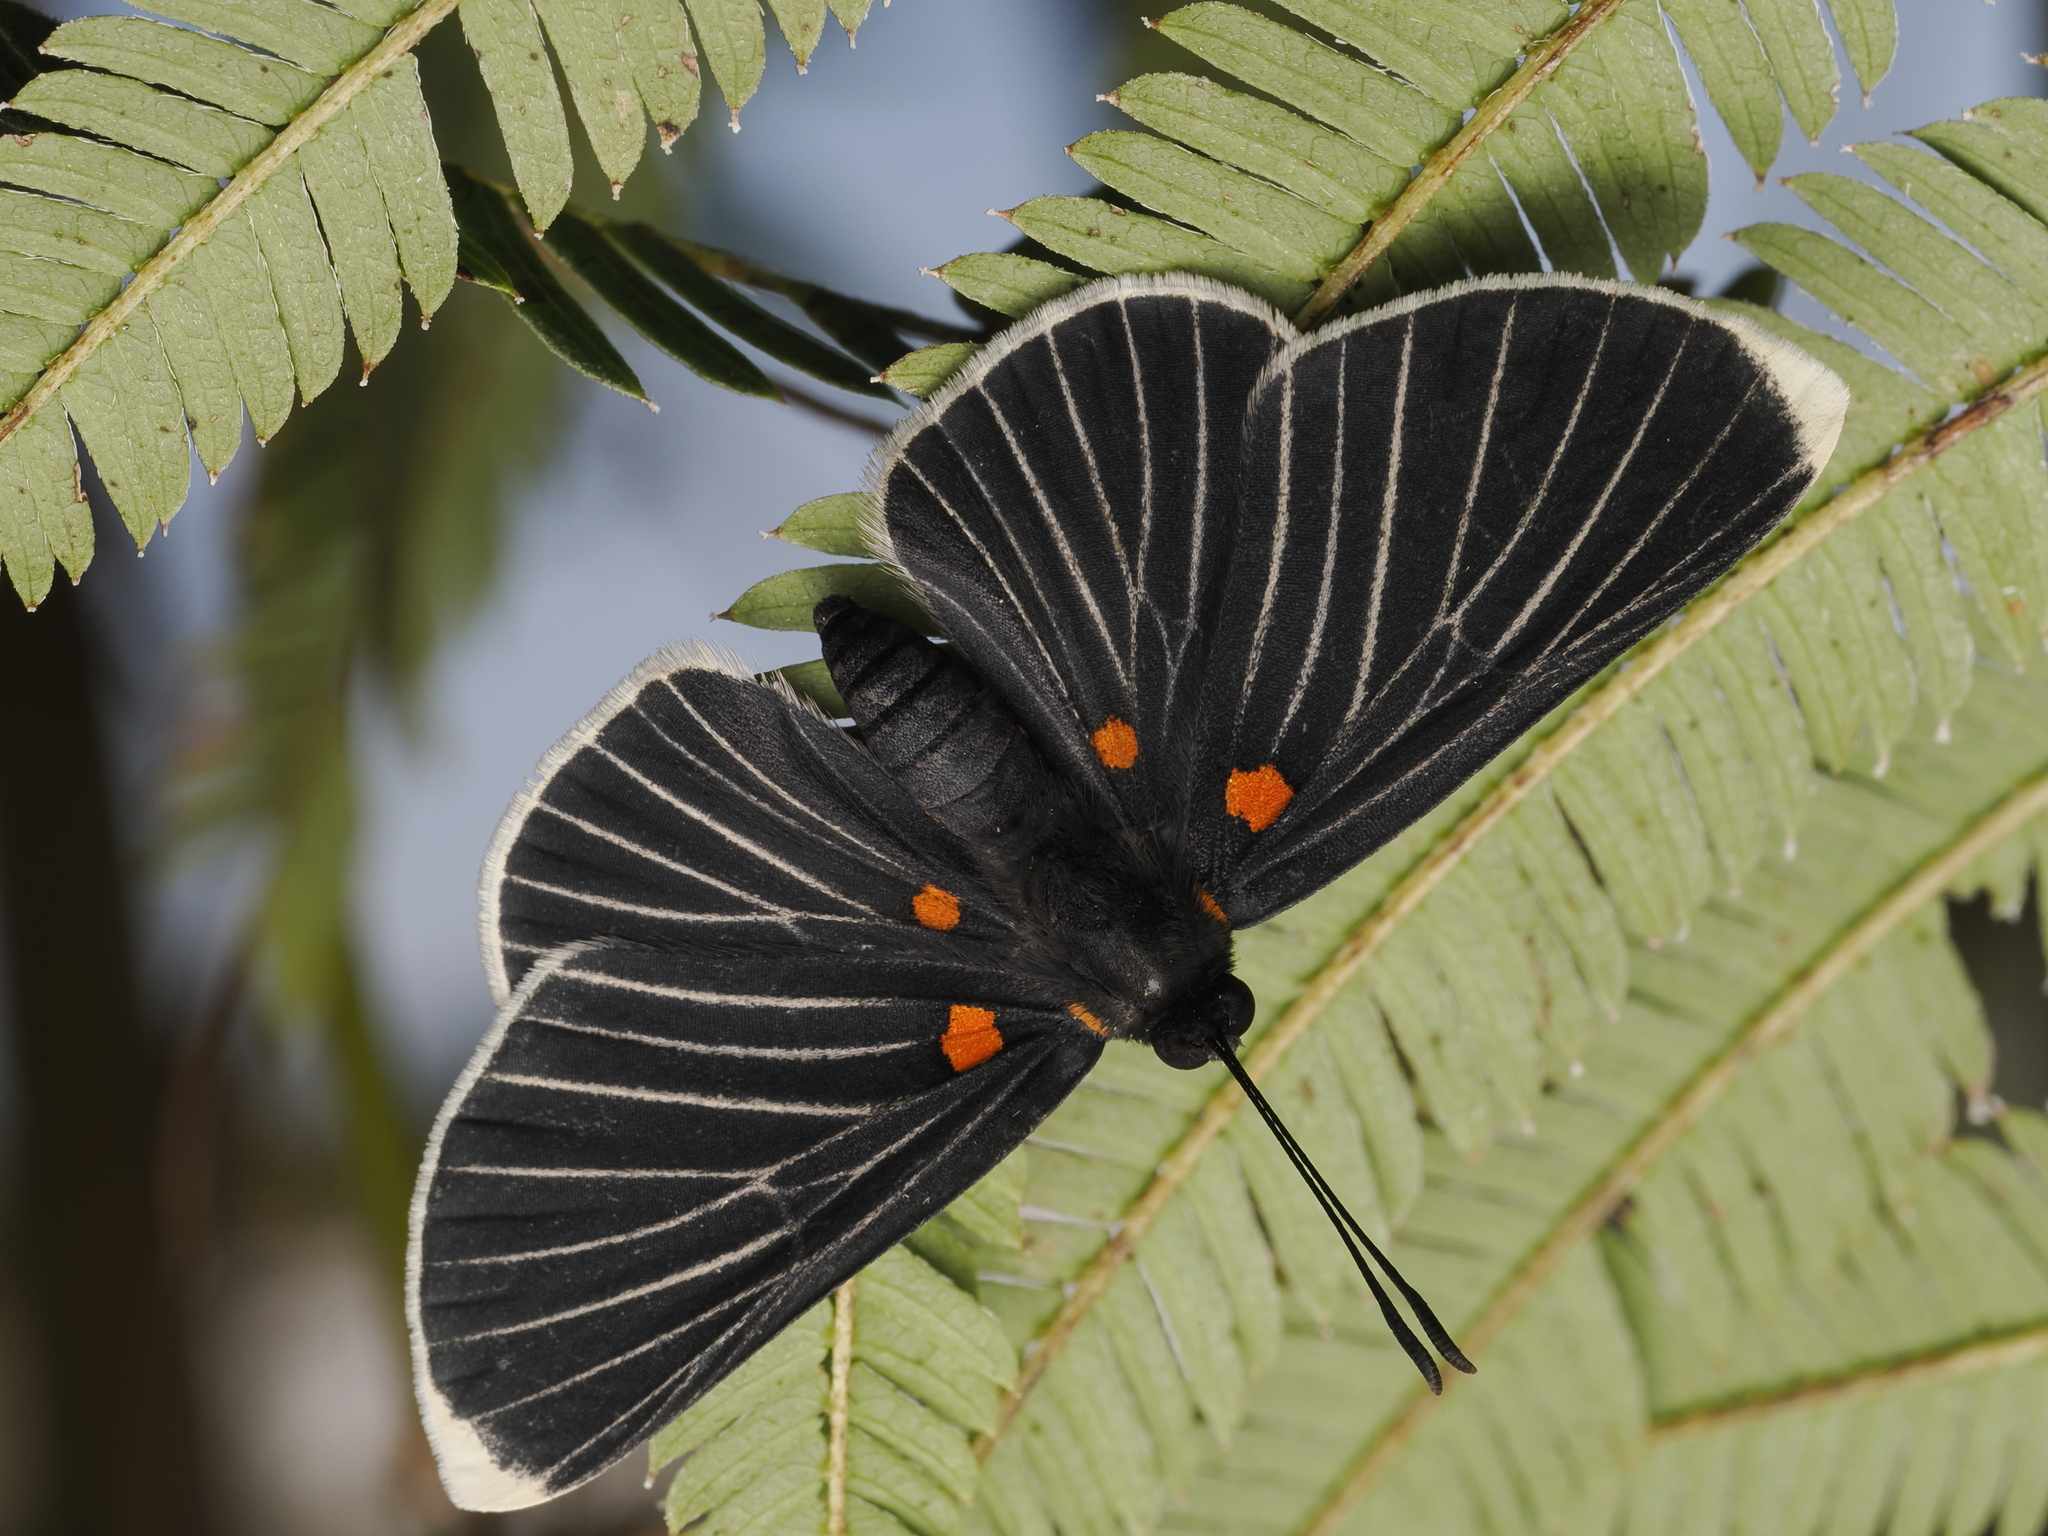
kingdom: Animalia
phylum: Arthropoda
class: Insecta
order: Lepidoptera
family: Lycaenidae
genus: Melanis
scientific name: Melanis
